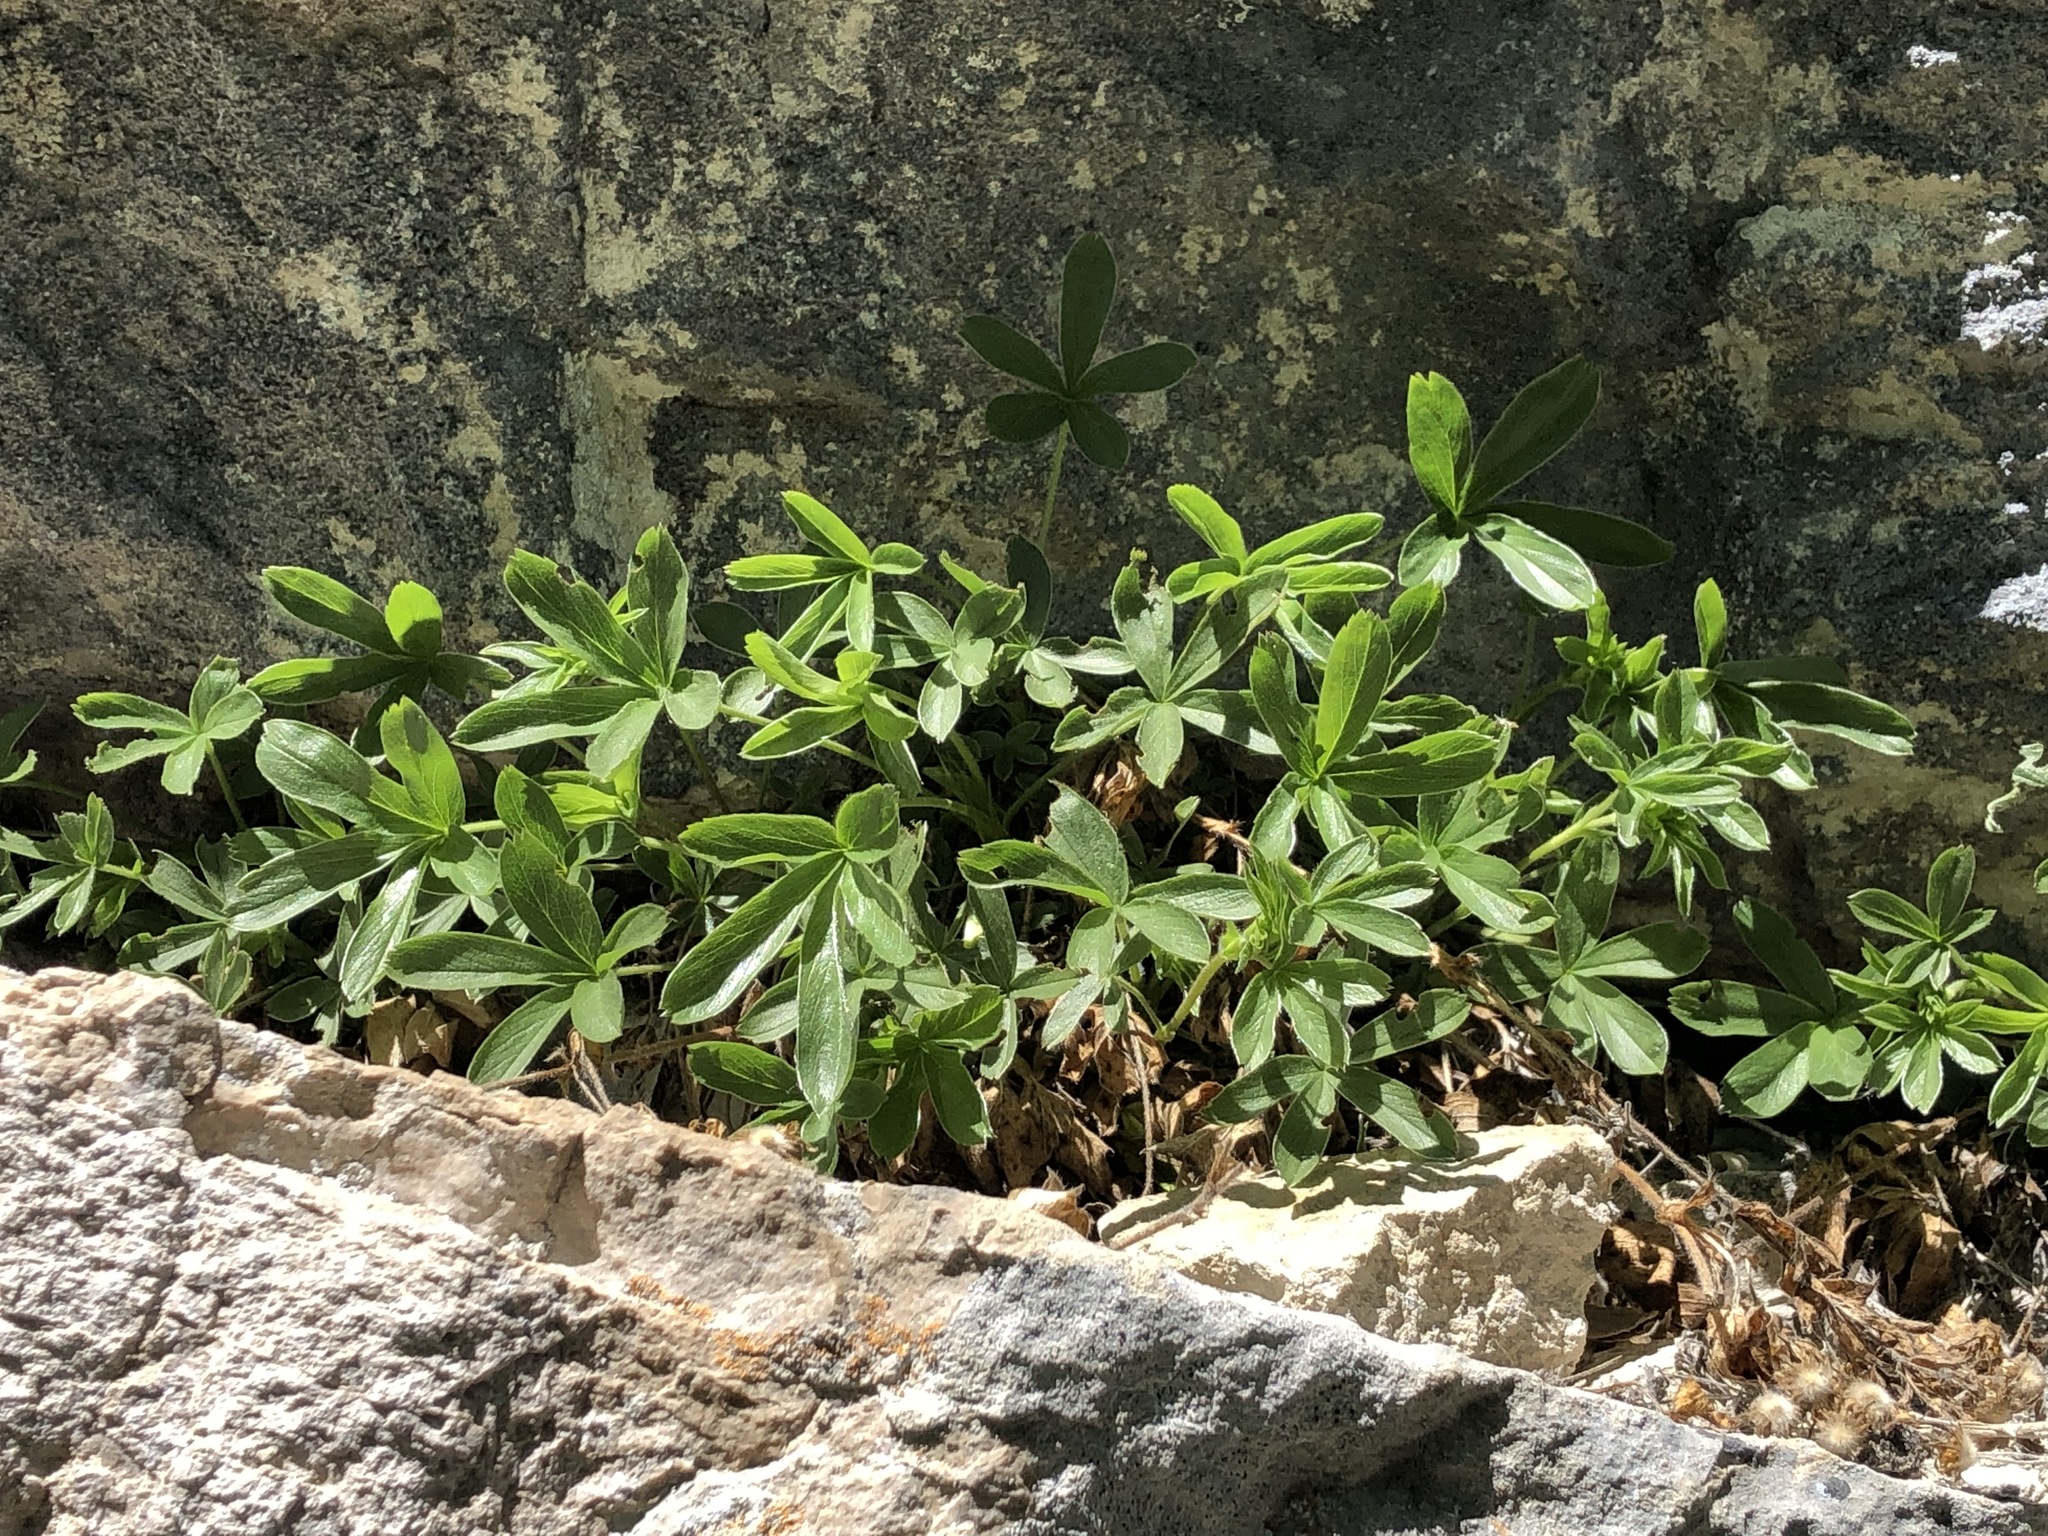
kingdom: Plantae
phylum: Tracheophyta
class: Magnoliopsida
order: Rosales
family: Rosaceae
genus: Potentilla
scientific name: Potentilla caulescens
